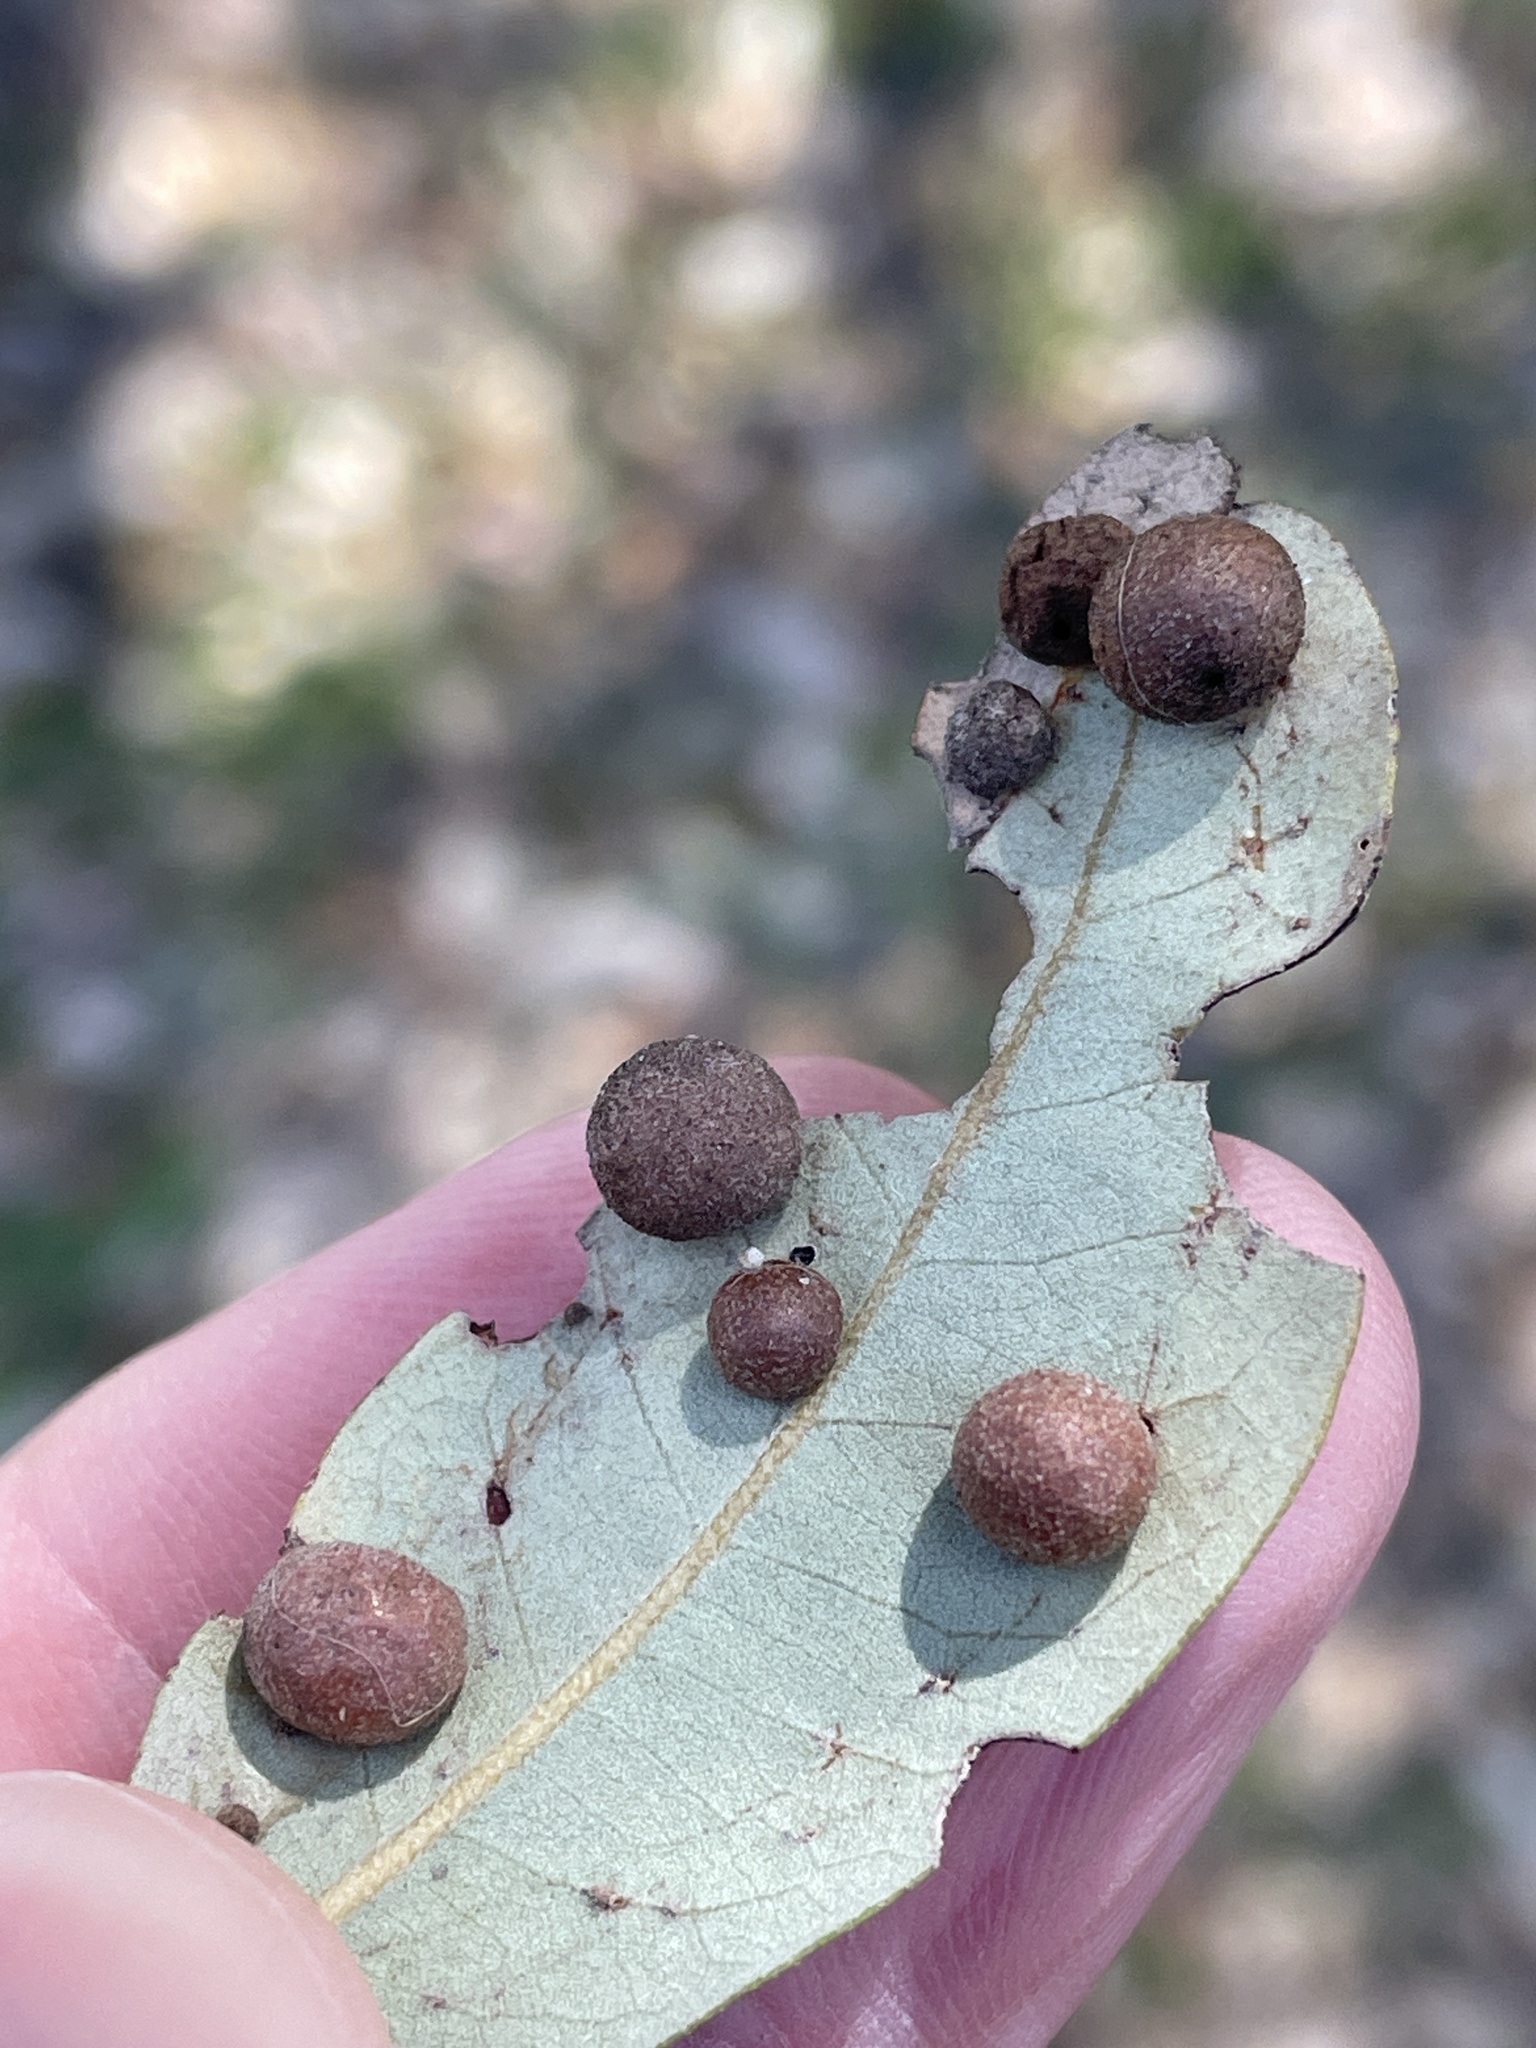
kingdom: Animalia
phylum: Arthropoda
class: Insecta
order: Hymenoptera
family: Cynipidae
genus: Belonocnema
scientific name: Belonocnema kinseyi
